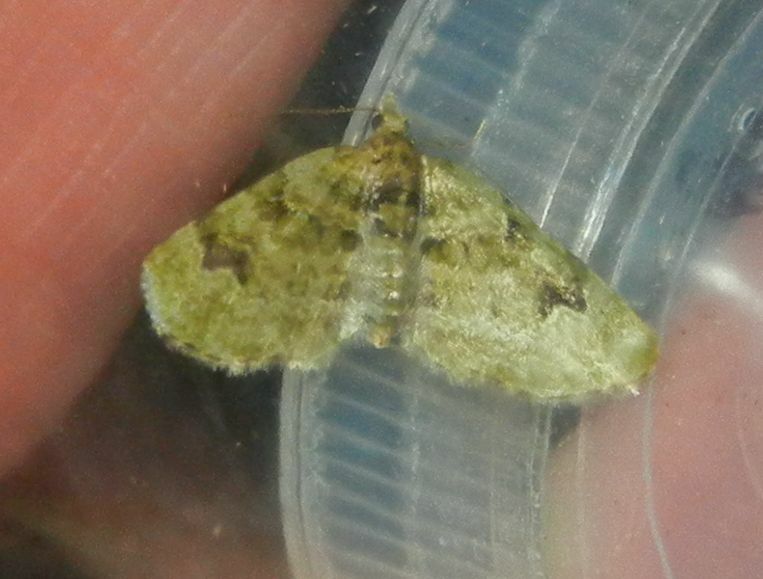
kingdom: Animalia
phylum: Arthropoda
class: Insecta
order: Lepidoptera
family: Geometridae
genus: Chloroclystis
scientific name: Chloroclystis v-ata
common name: V-pug
